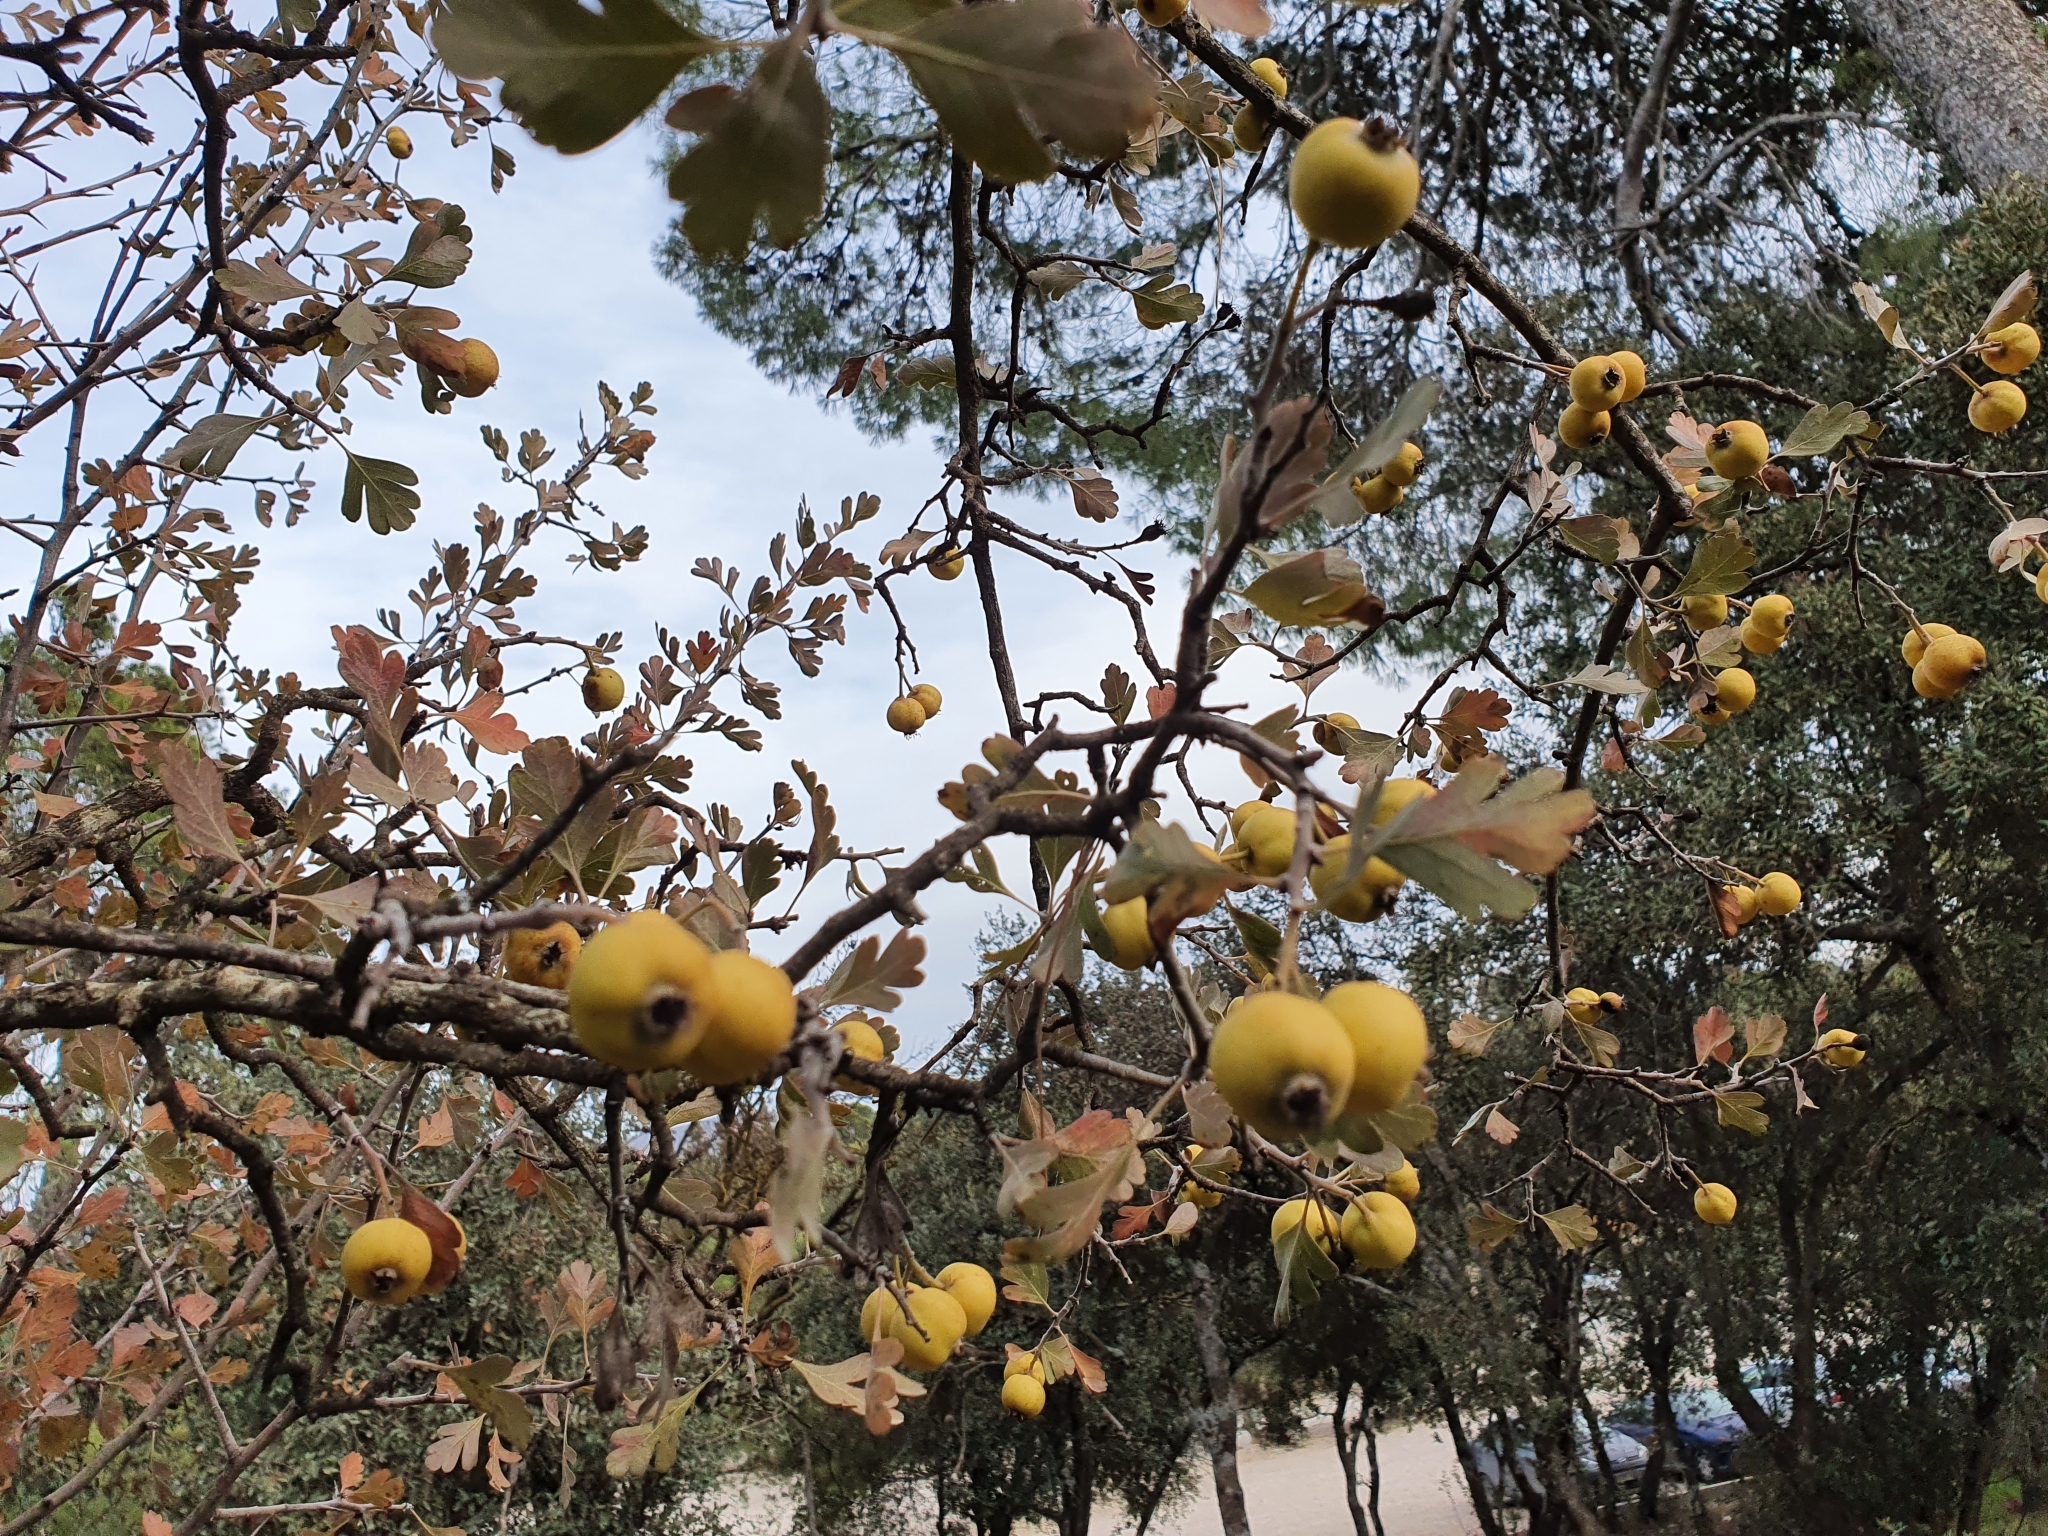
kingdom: Plantae
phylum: Tracheophyta
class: Magnoliopsida
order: Rosales
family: Rosaceae
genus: Crataegus
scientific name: Crataegus azarolus
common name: Azarole
